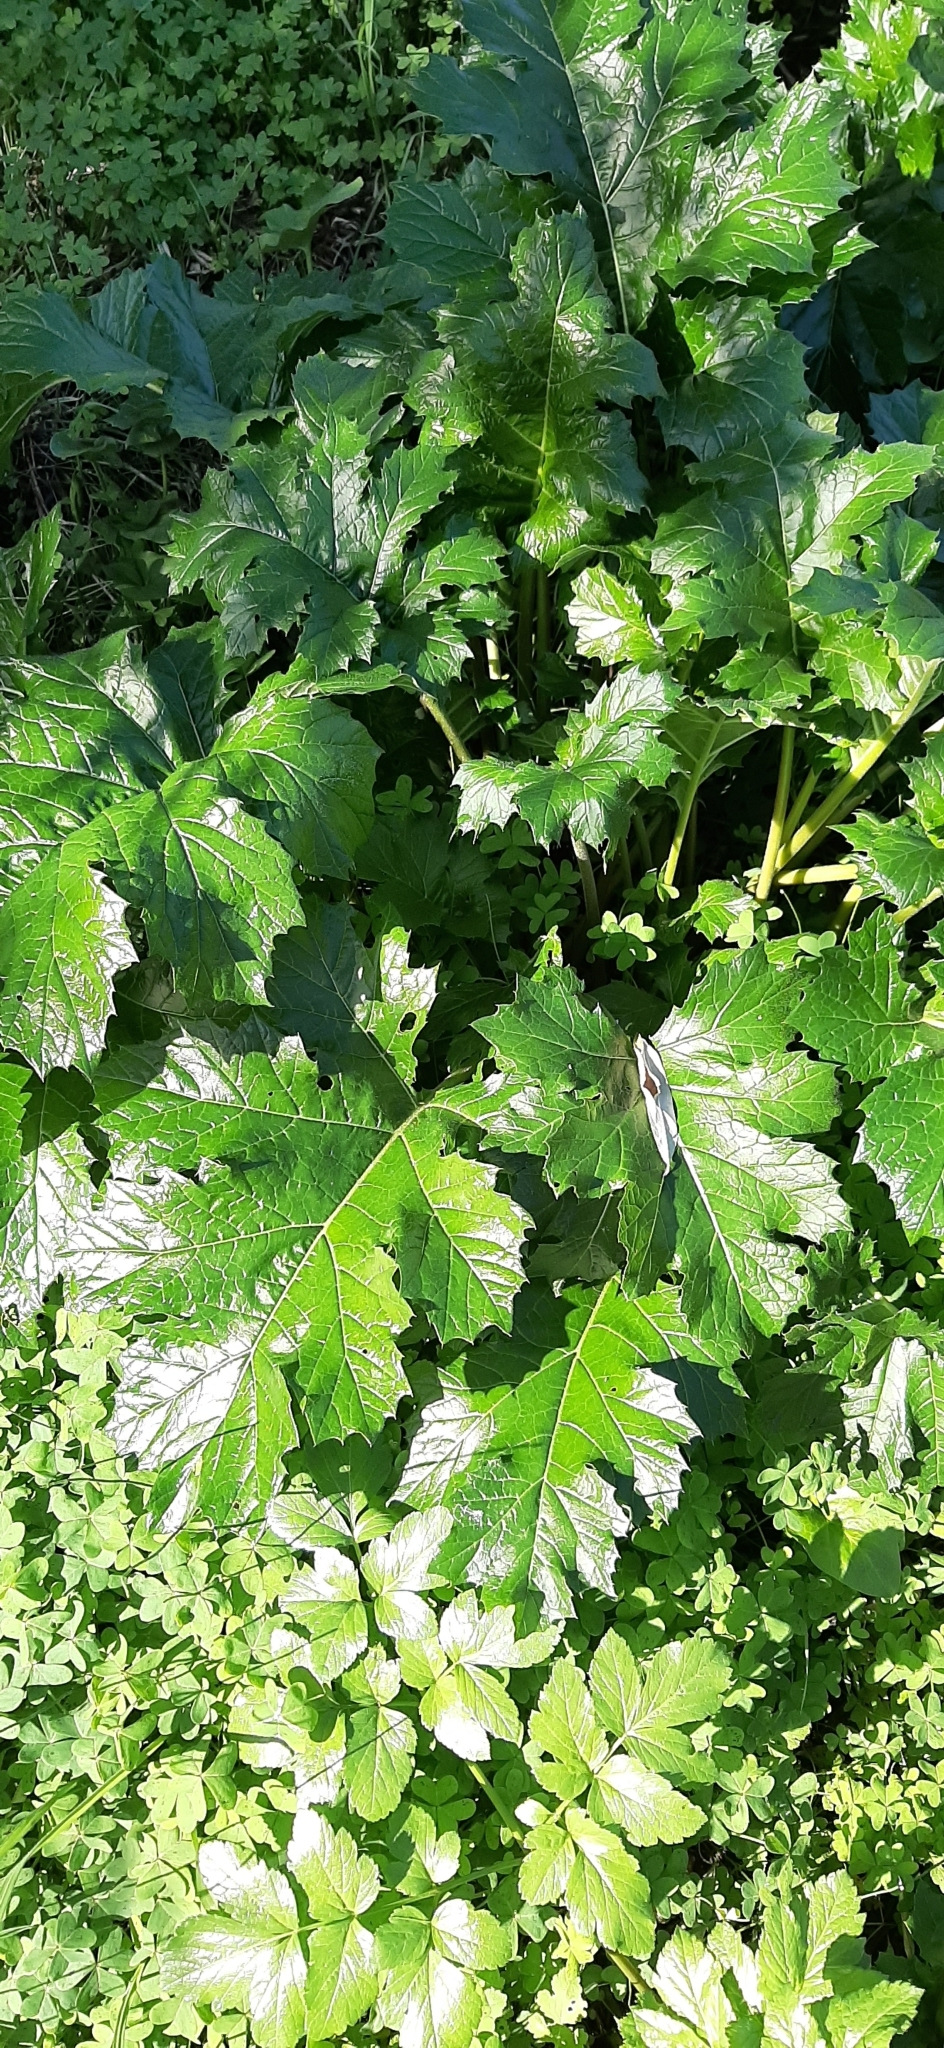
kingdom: Plantae
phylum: Tracheophyta
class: Magnoliopsida
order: Lamiales
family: Acanthaceae
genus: Acanthus
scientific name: Acanthus mollis
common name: Bear's-breech
